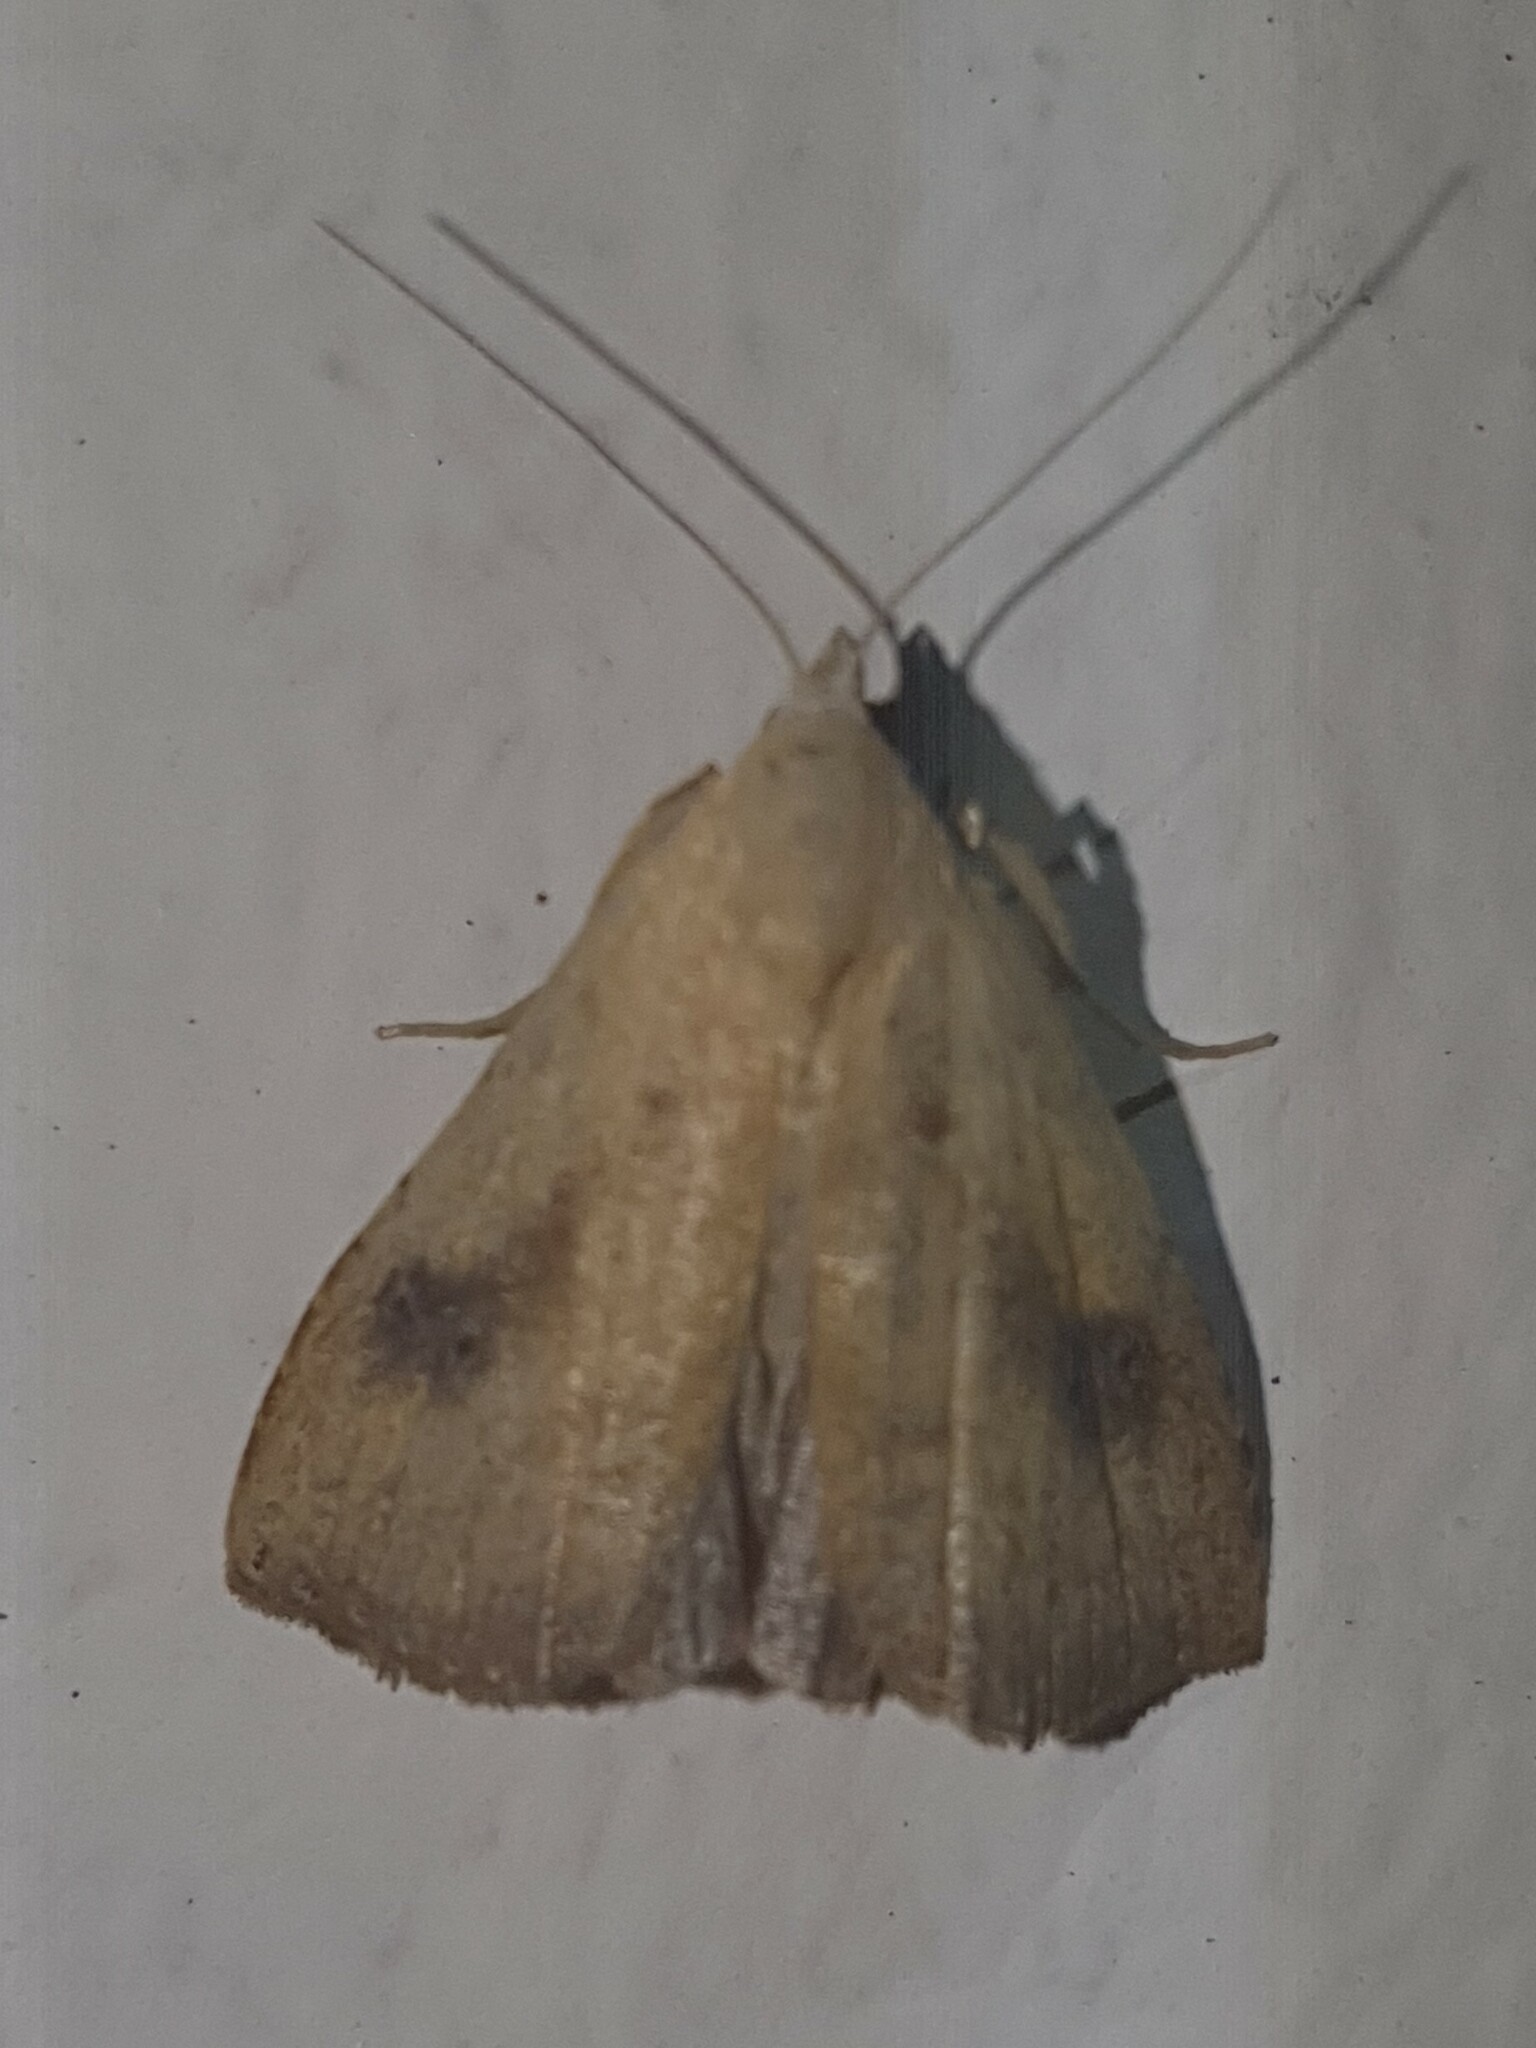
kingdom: Animalia
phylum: Arthropoda
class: Insecta
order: Lepidoptera
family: Erebidae
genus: Rivula
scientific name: Rivula sericealis
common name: Straw dot
